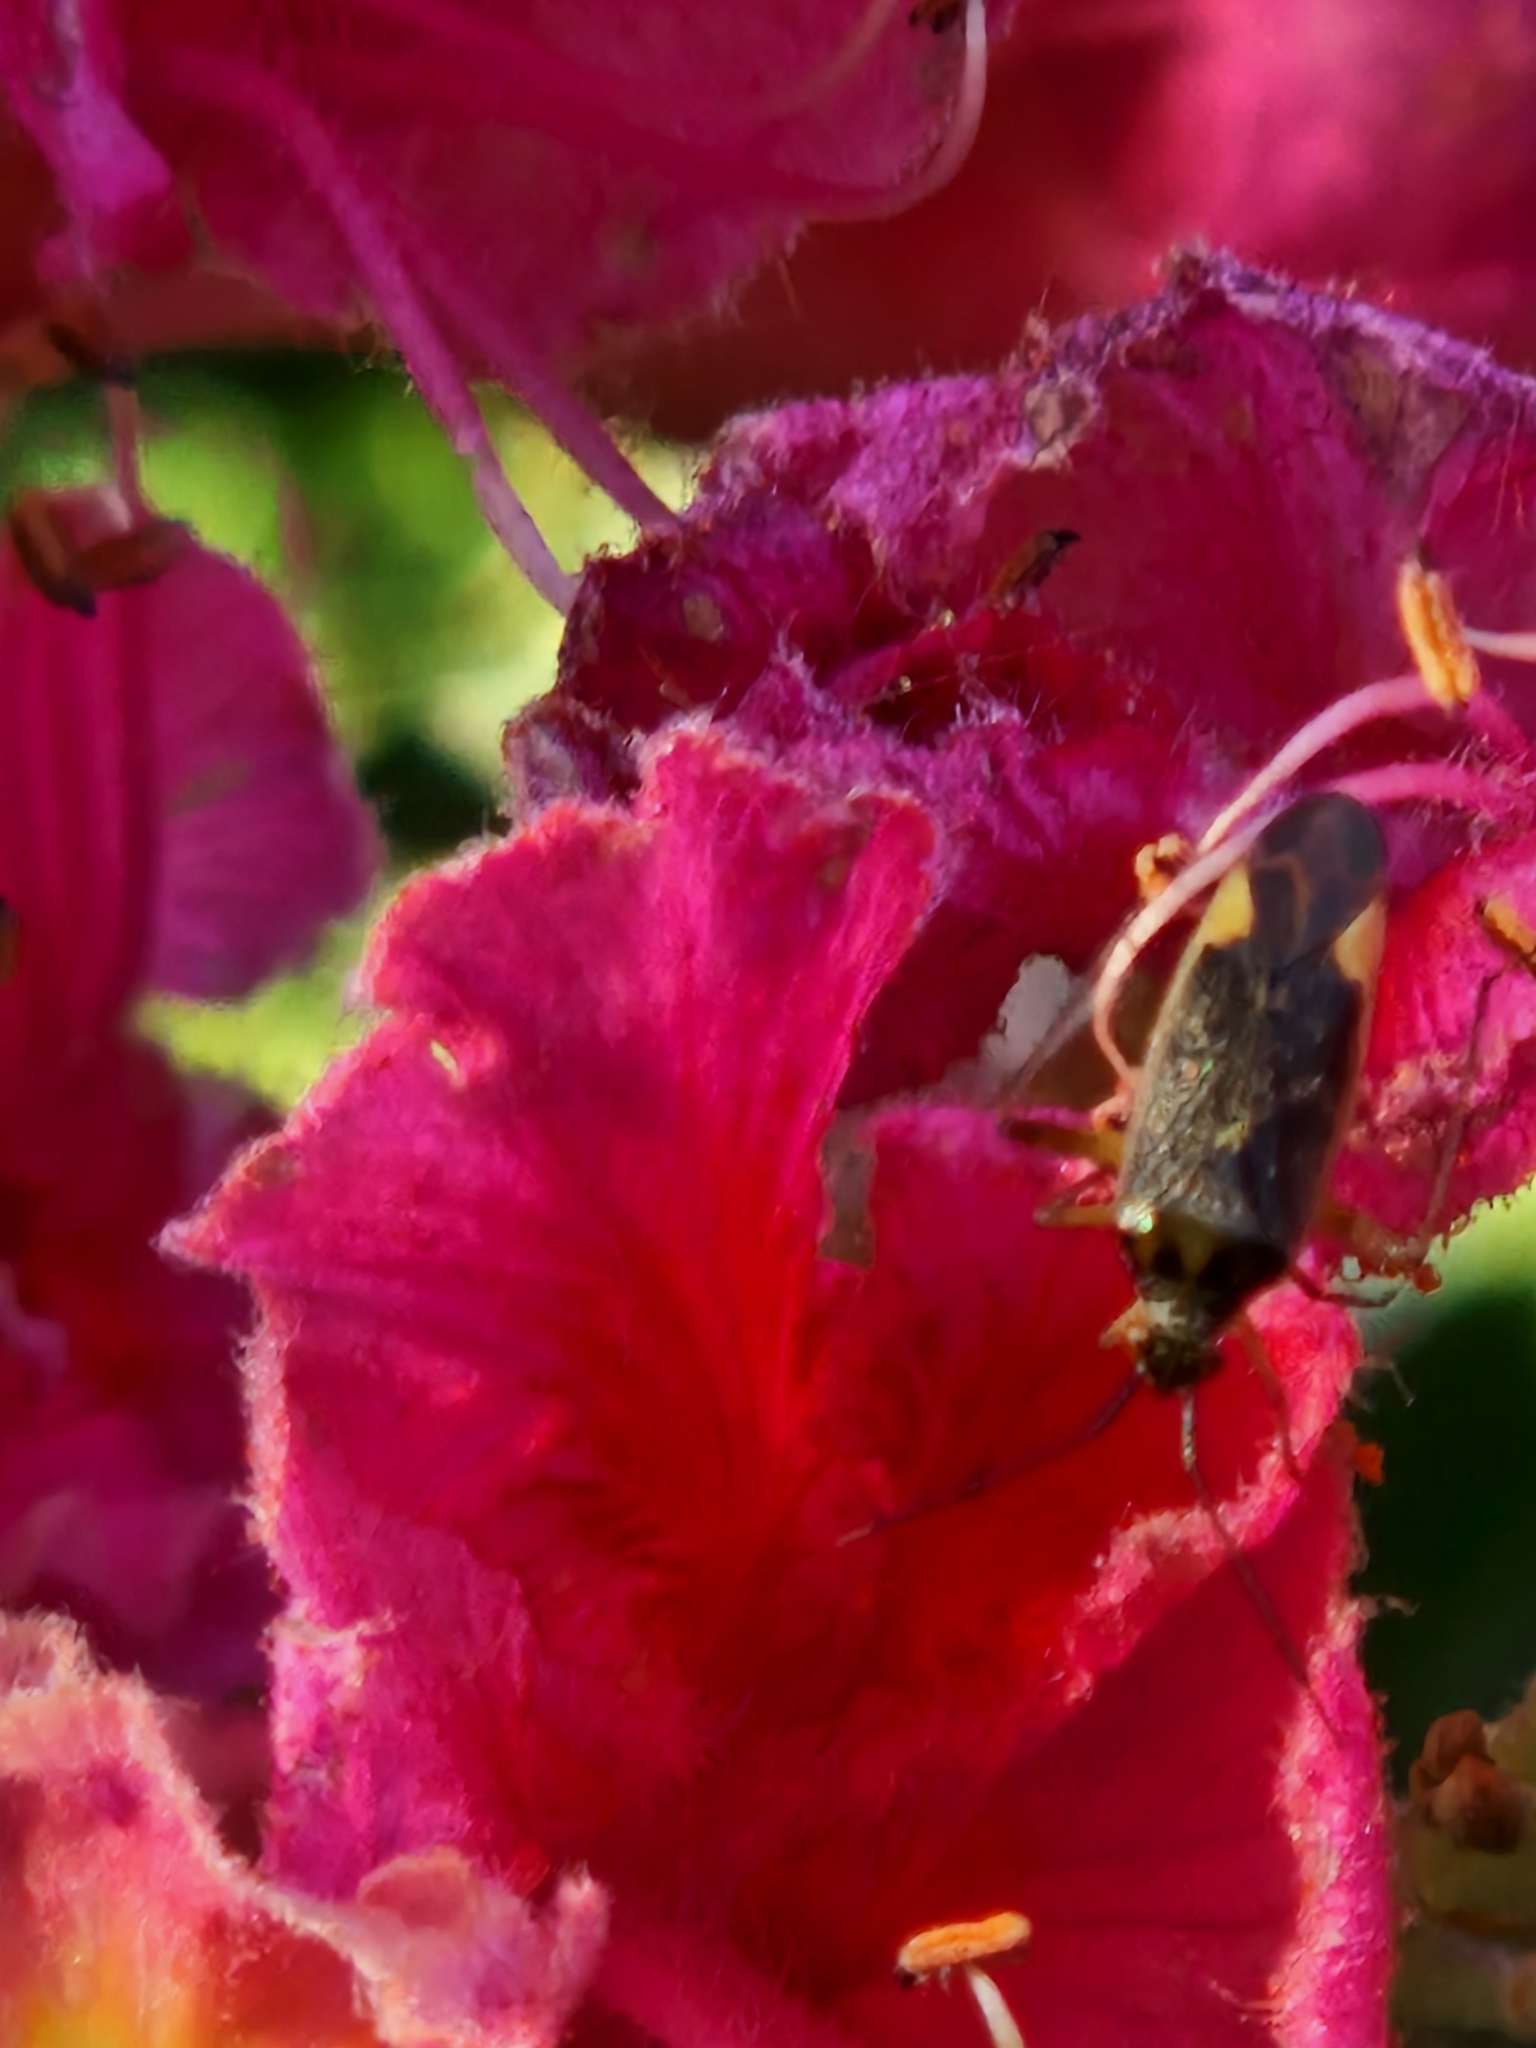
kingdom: Animalia
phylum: Arthropoda
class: Insecta
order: Hemiptera
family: Miridae
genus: Closterotomus
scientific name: Closterotomus trivialis
